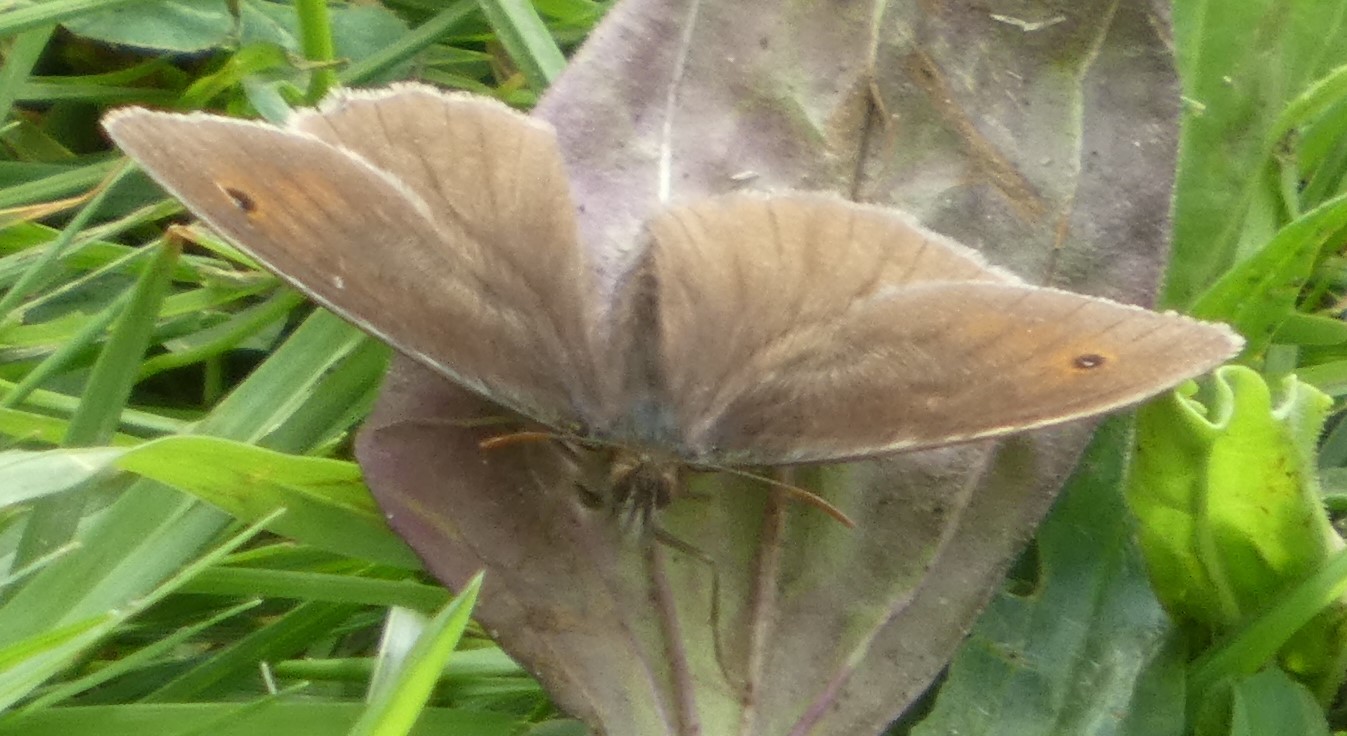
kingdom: Animalia
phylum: Arthropoda
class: Insecta
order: Lepidoptera
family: Nymphalidae
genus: Maniola
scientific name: Maniola jurtina
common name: Meadow brown
